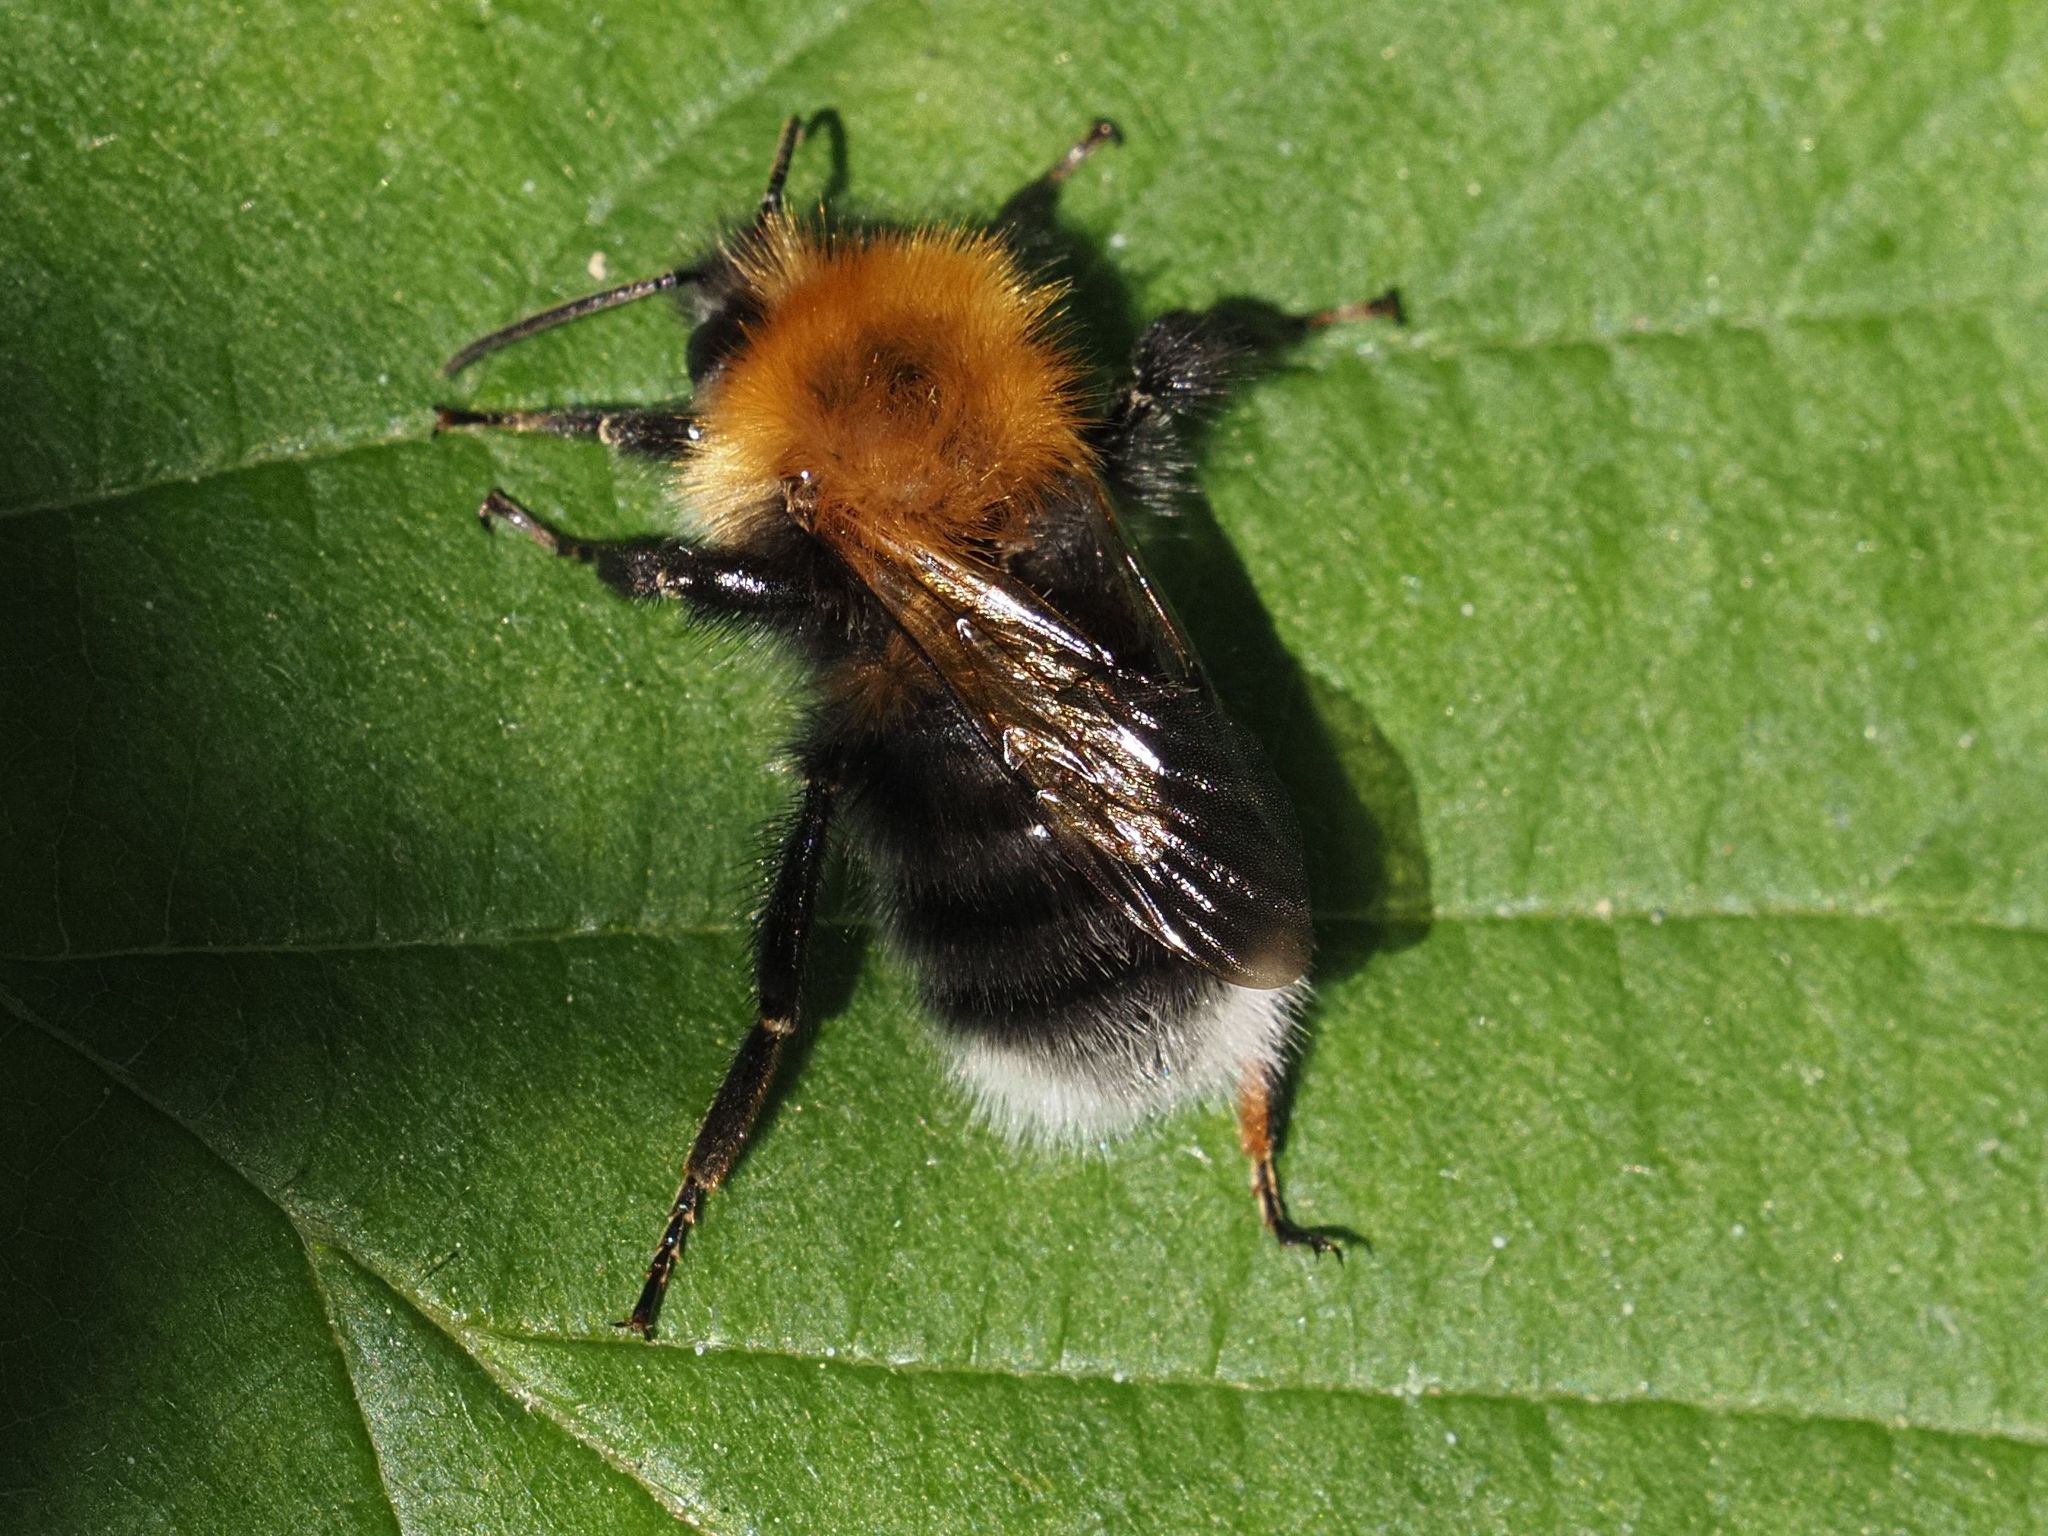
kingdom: Animalia
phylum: Arthropoda
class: Insecta
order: Hymenoptera
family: Apidae
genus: Bombus
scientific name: Bombus hypnorum
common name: New garden bumblebee
